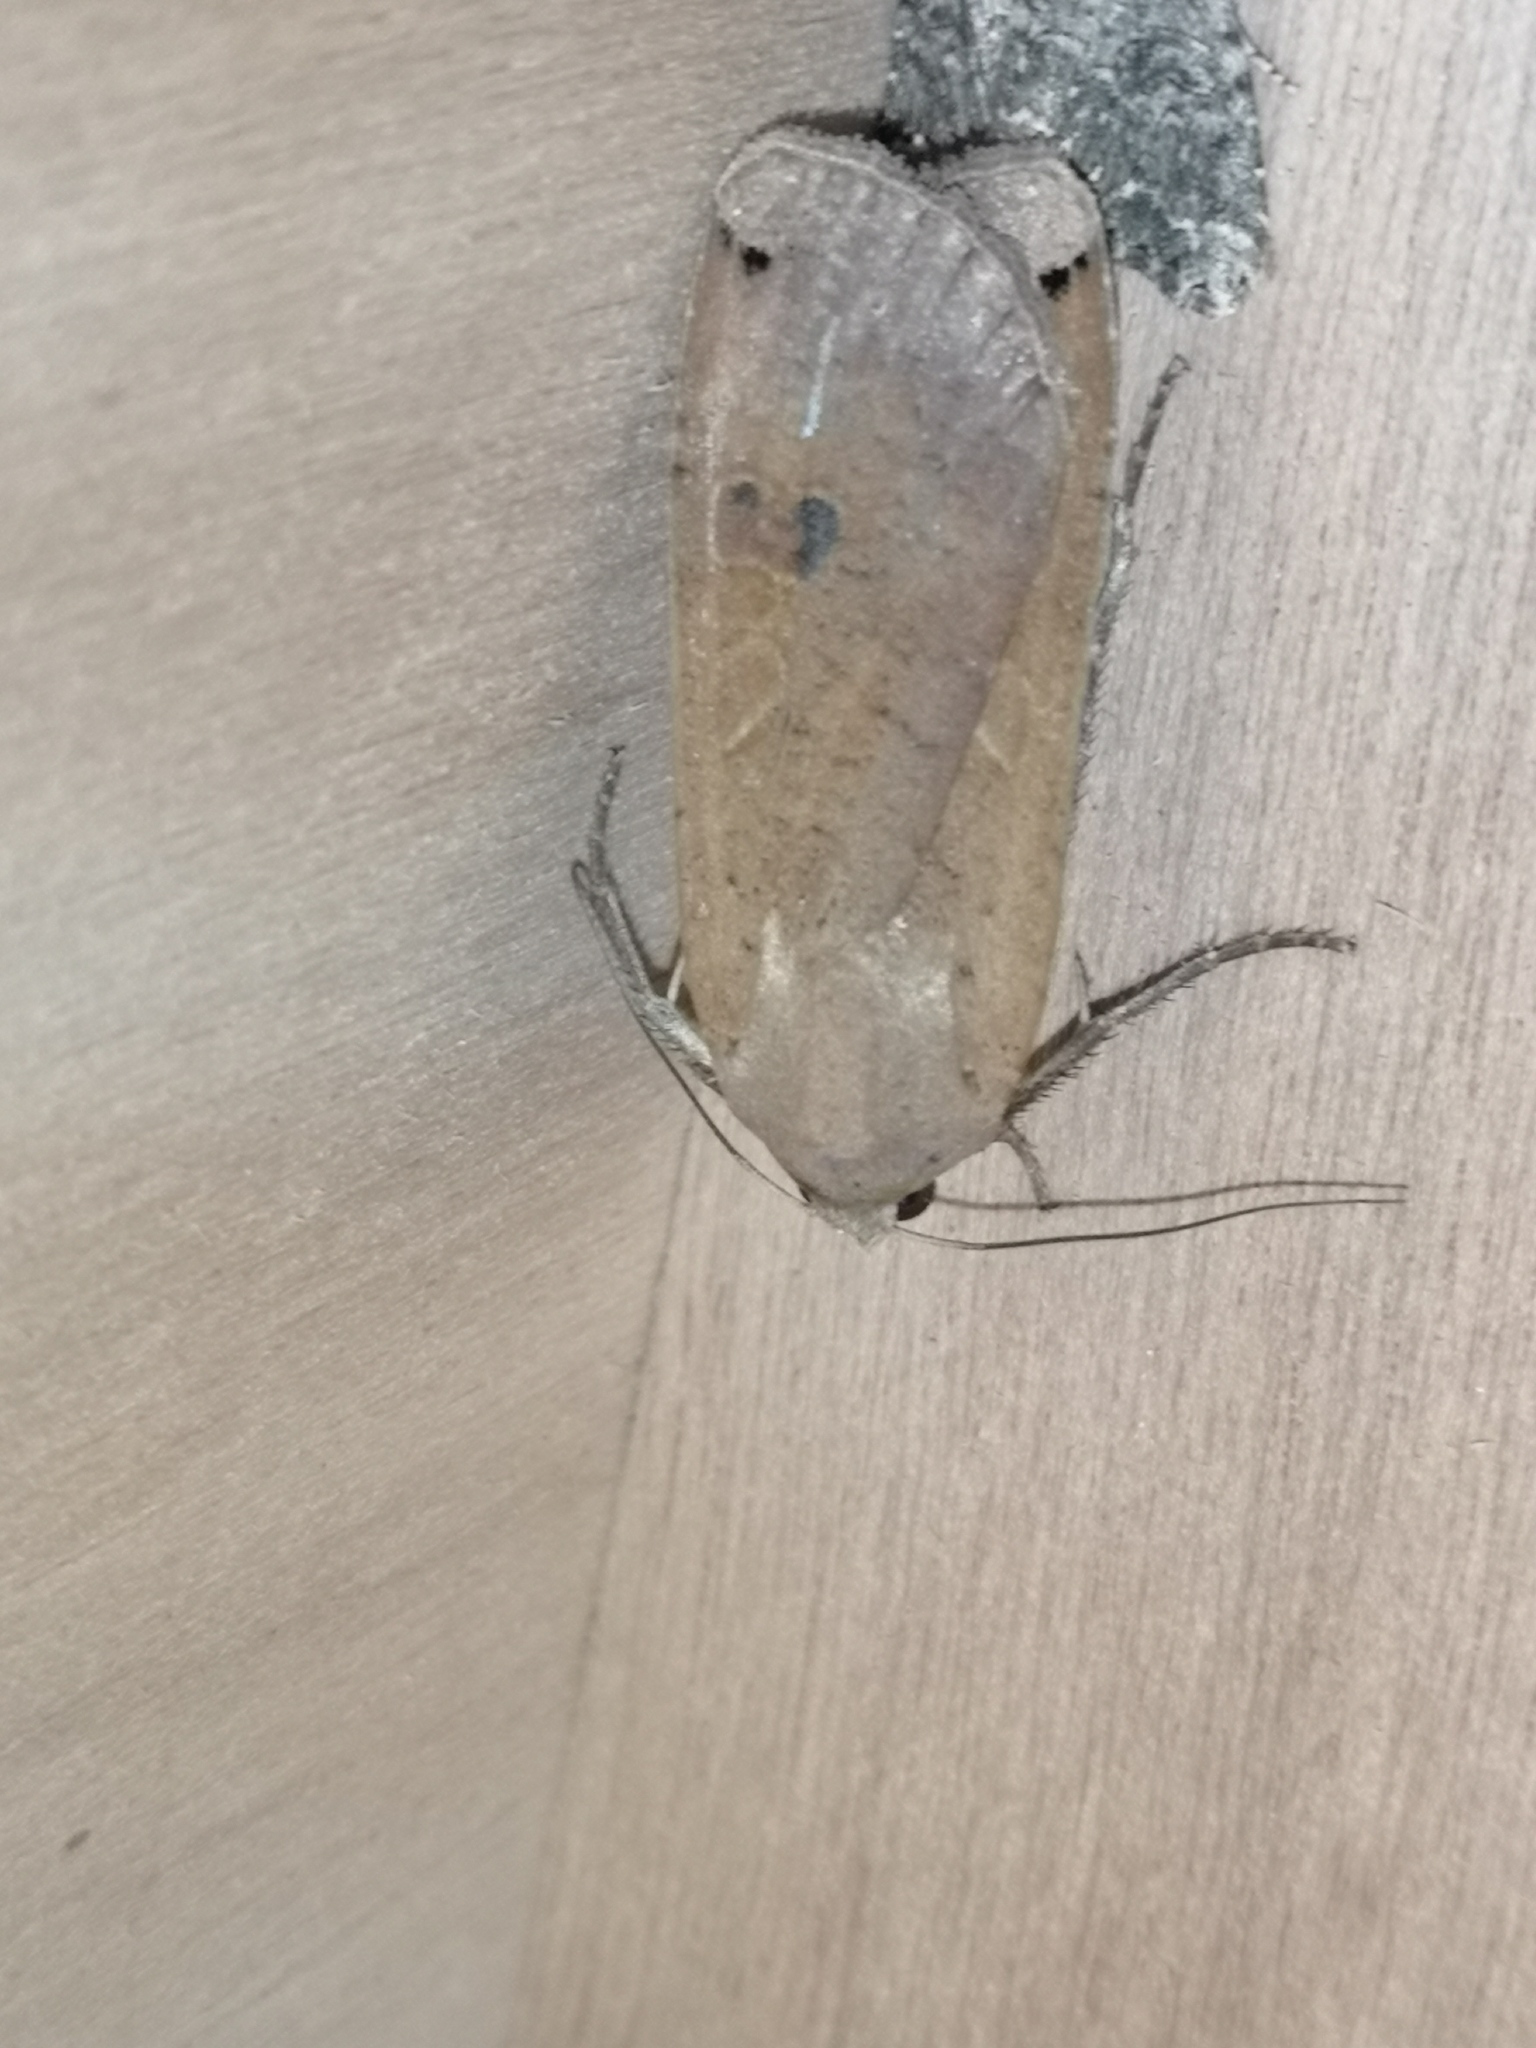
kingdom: Animalia
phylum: Arthropoda
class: Insecta
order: Lepidoptera
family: Noctuidae
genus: Noctua
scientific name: Noctua pronuba
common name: Large yellow underwing
